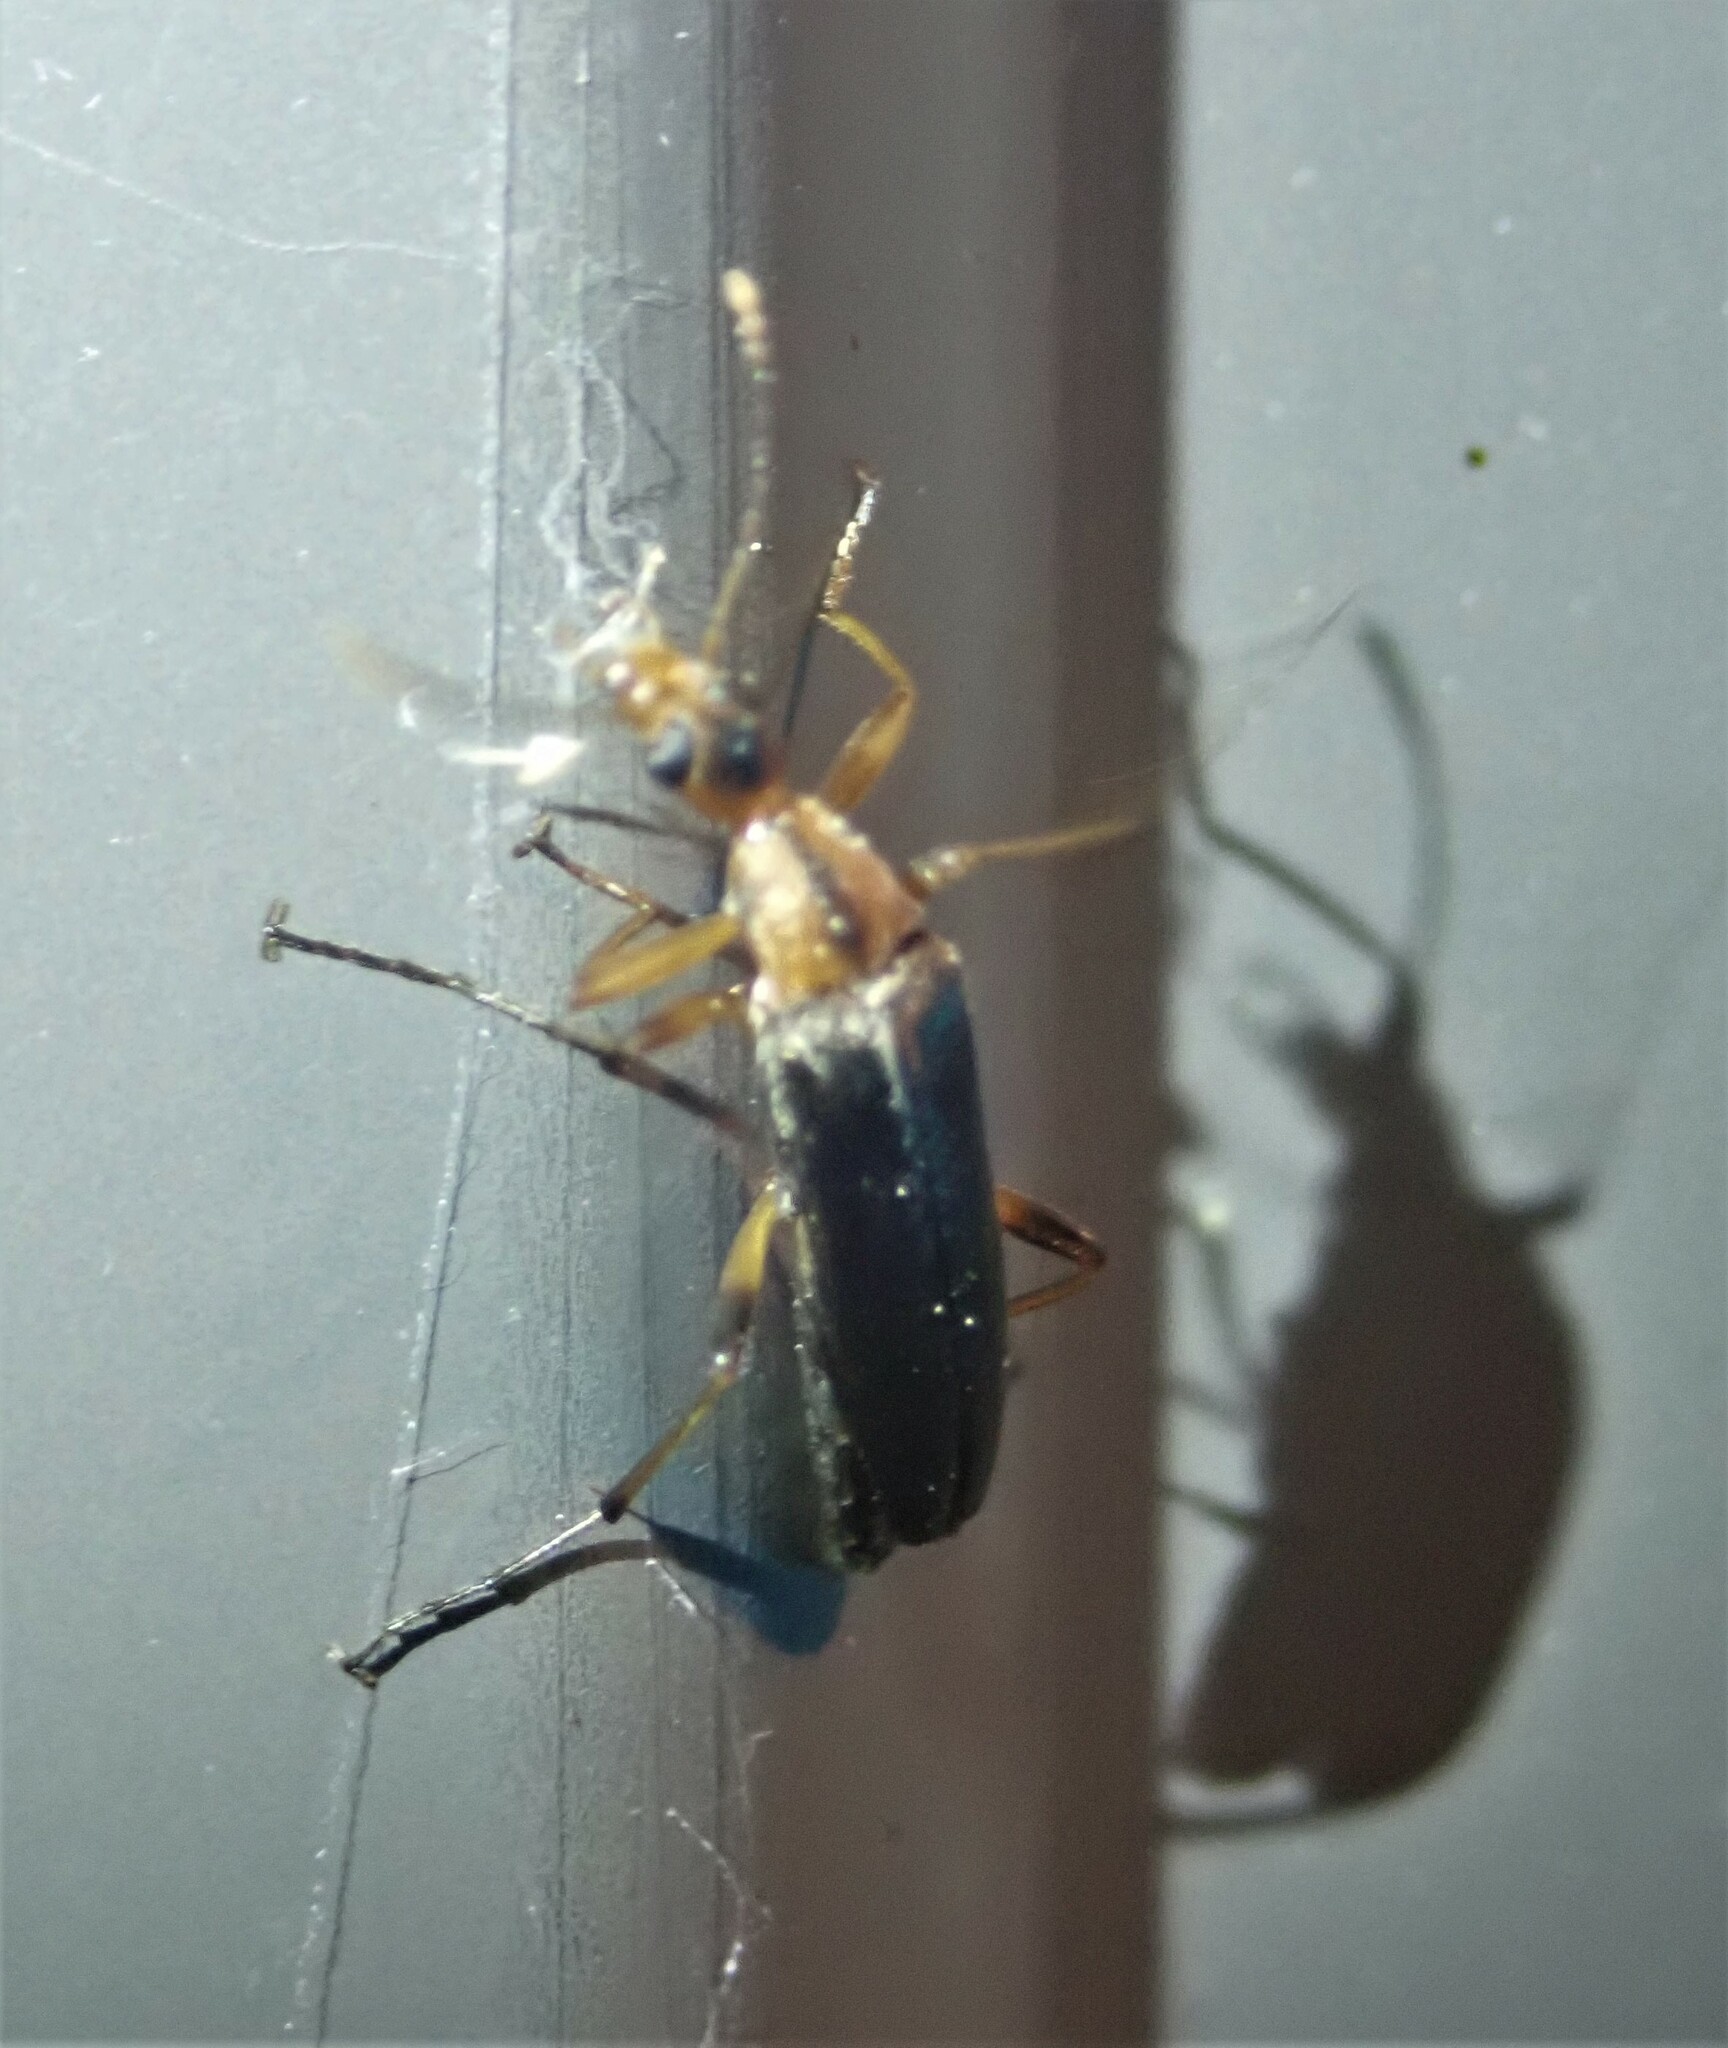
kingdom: Animalia
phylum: Arthropoda
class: Insecta
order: Coleoptera
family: Stenotrachelidae
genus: Cephaloon
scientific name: Cephaloon lepturides
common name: False leptura beetle
